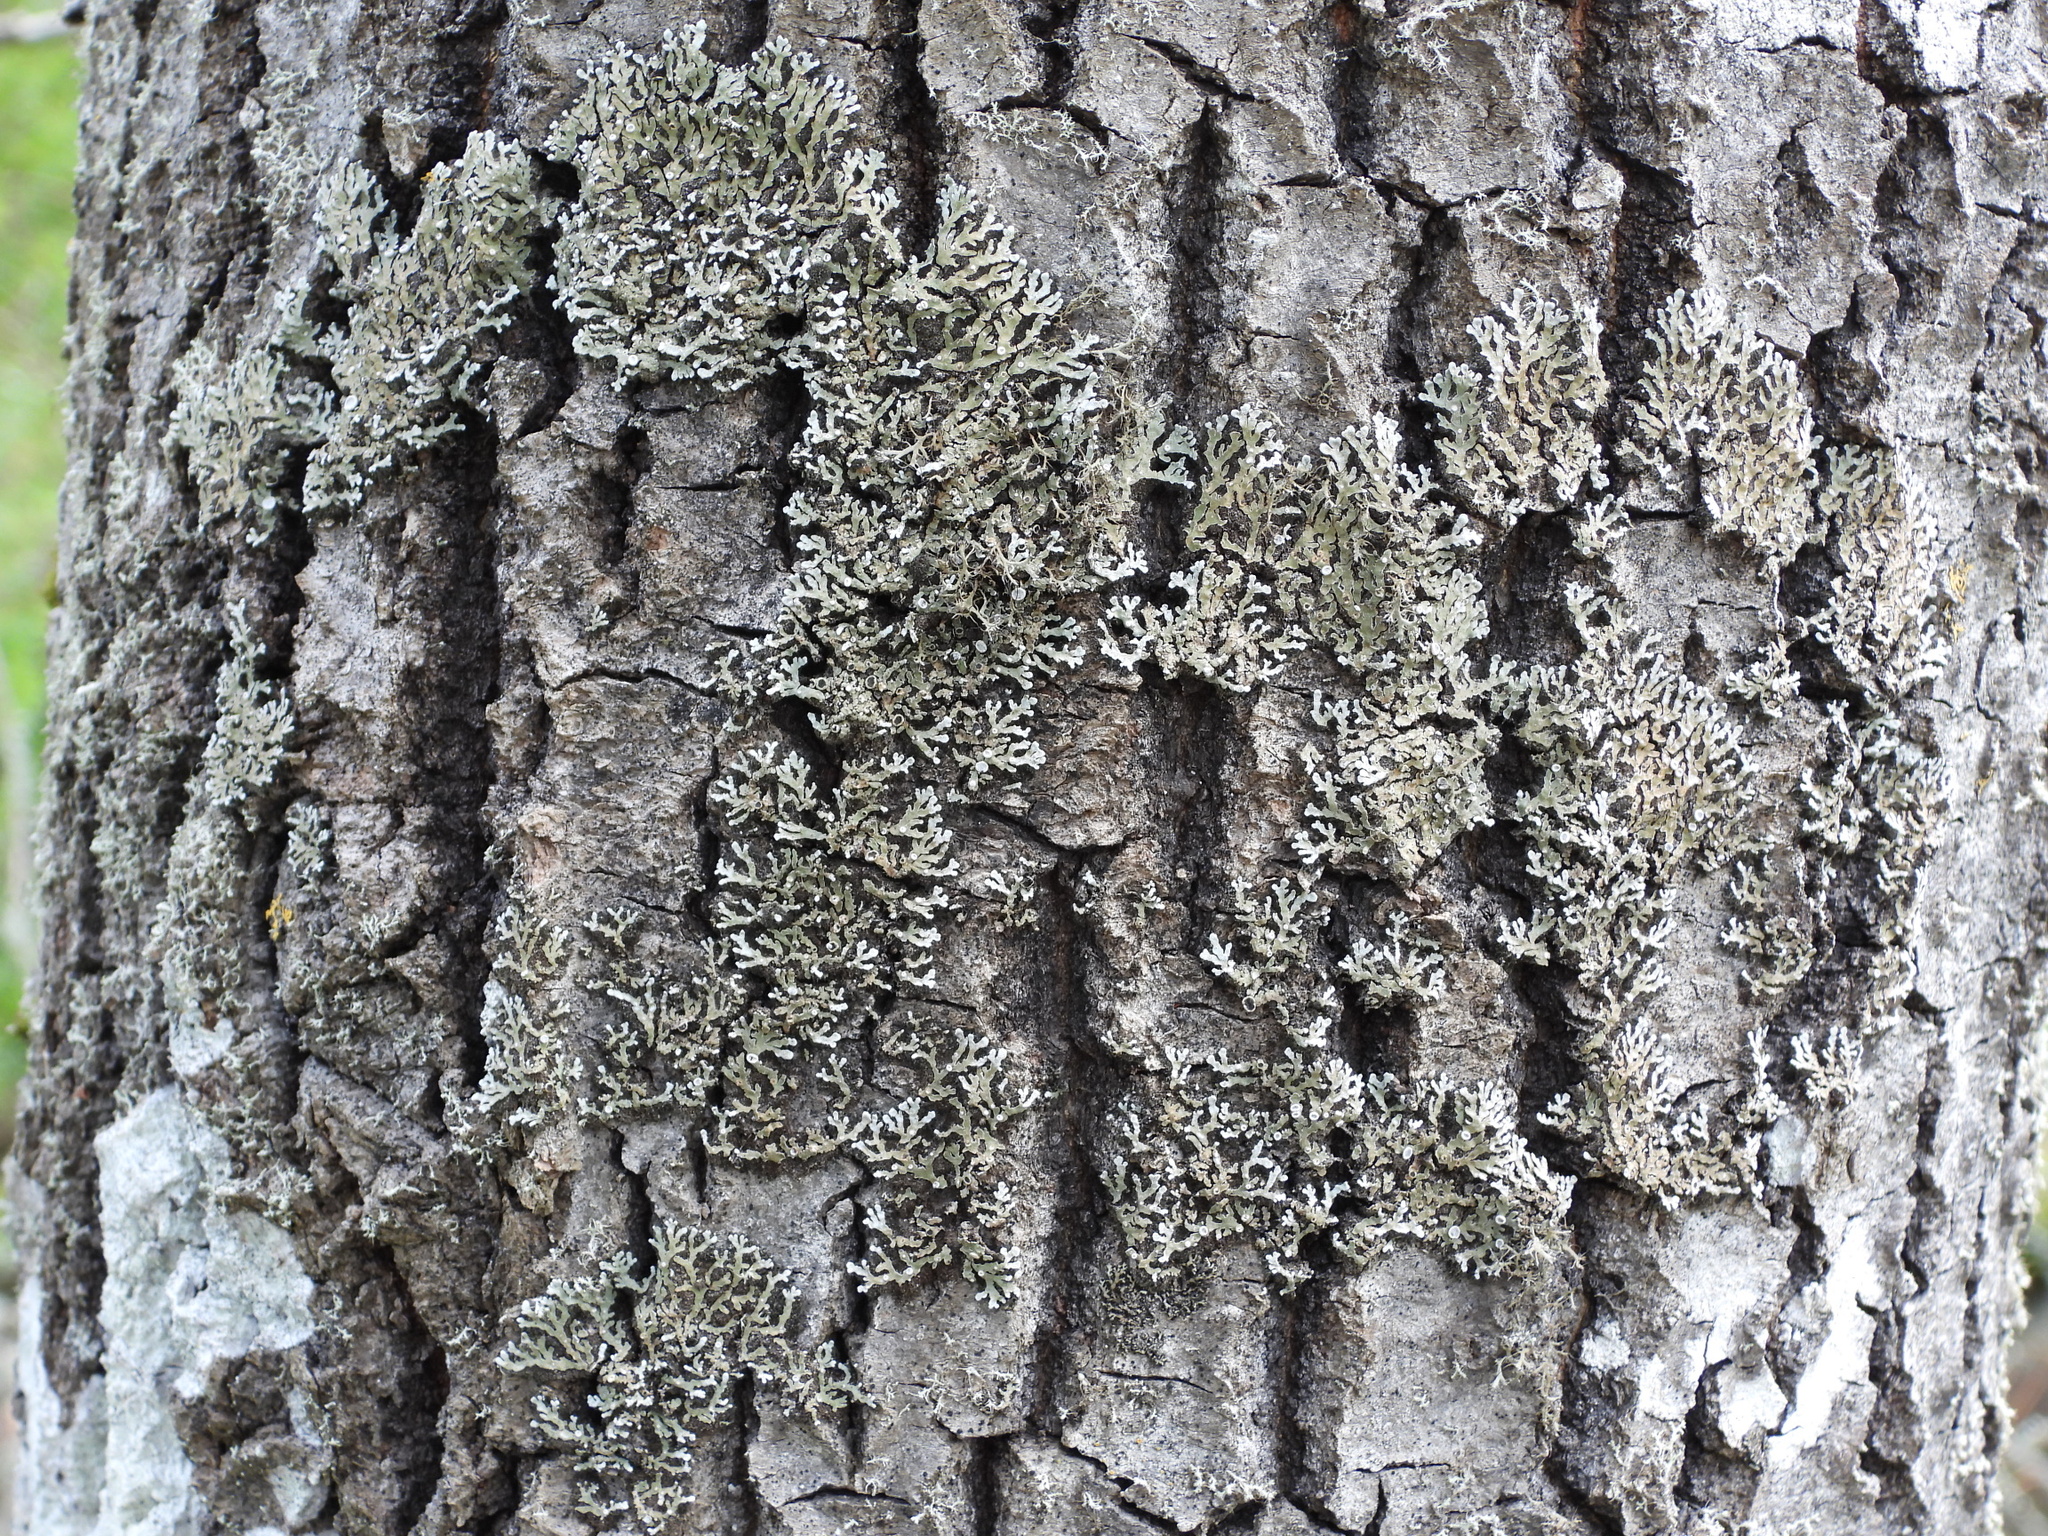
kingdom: Fungi
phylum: Ascomycota
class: Lecanoromycetes
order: Caliciales
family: Physciaceae
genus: Physconia
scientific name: Physconia distorta
